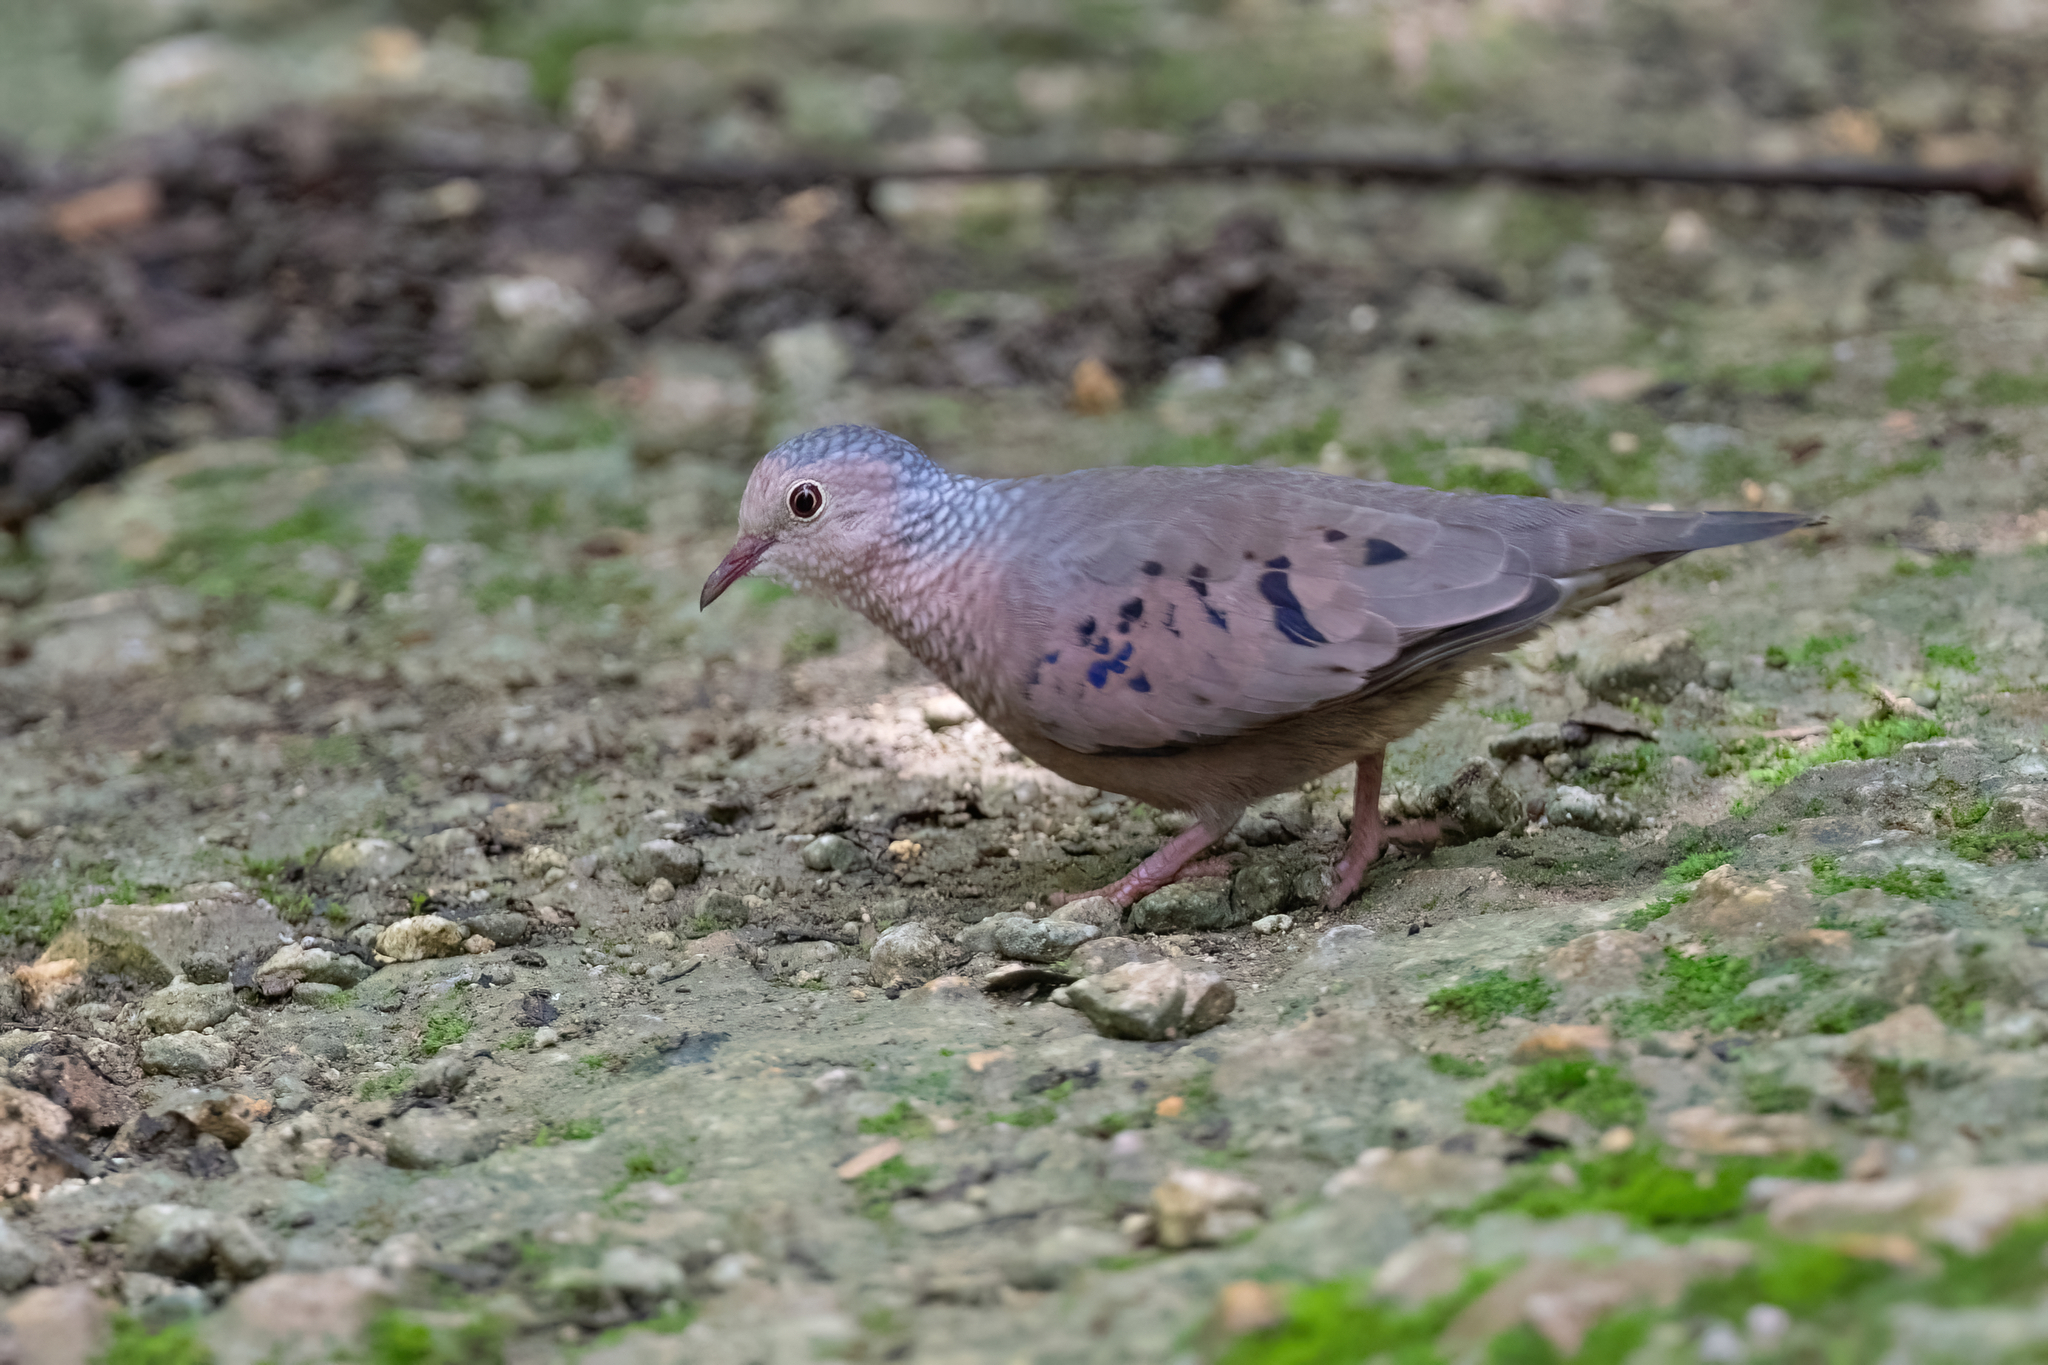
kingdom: Animalia
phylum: Chordata
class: Aves
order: Columbiformes
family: Columbidae
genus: Columbina
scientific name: Columbina passerina
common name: Common ground-dove
